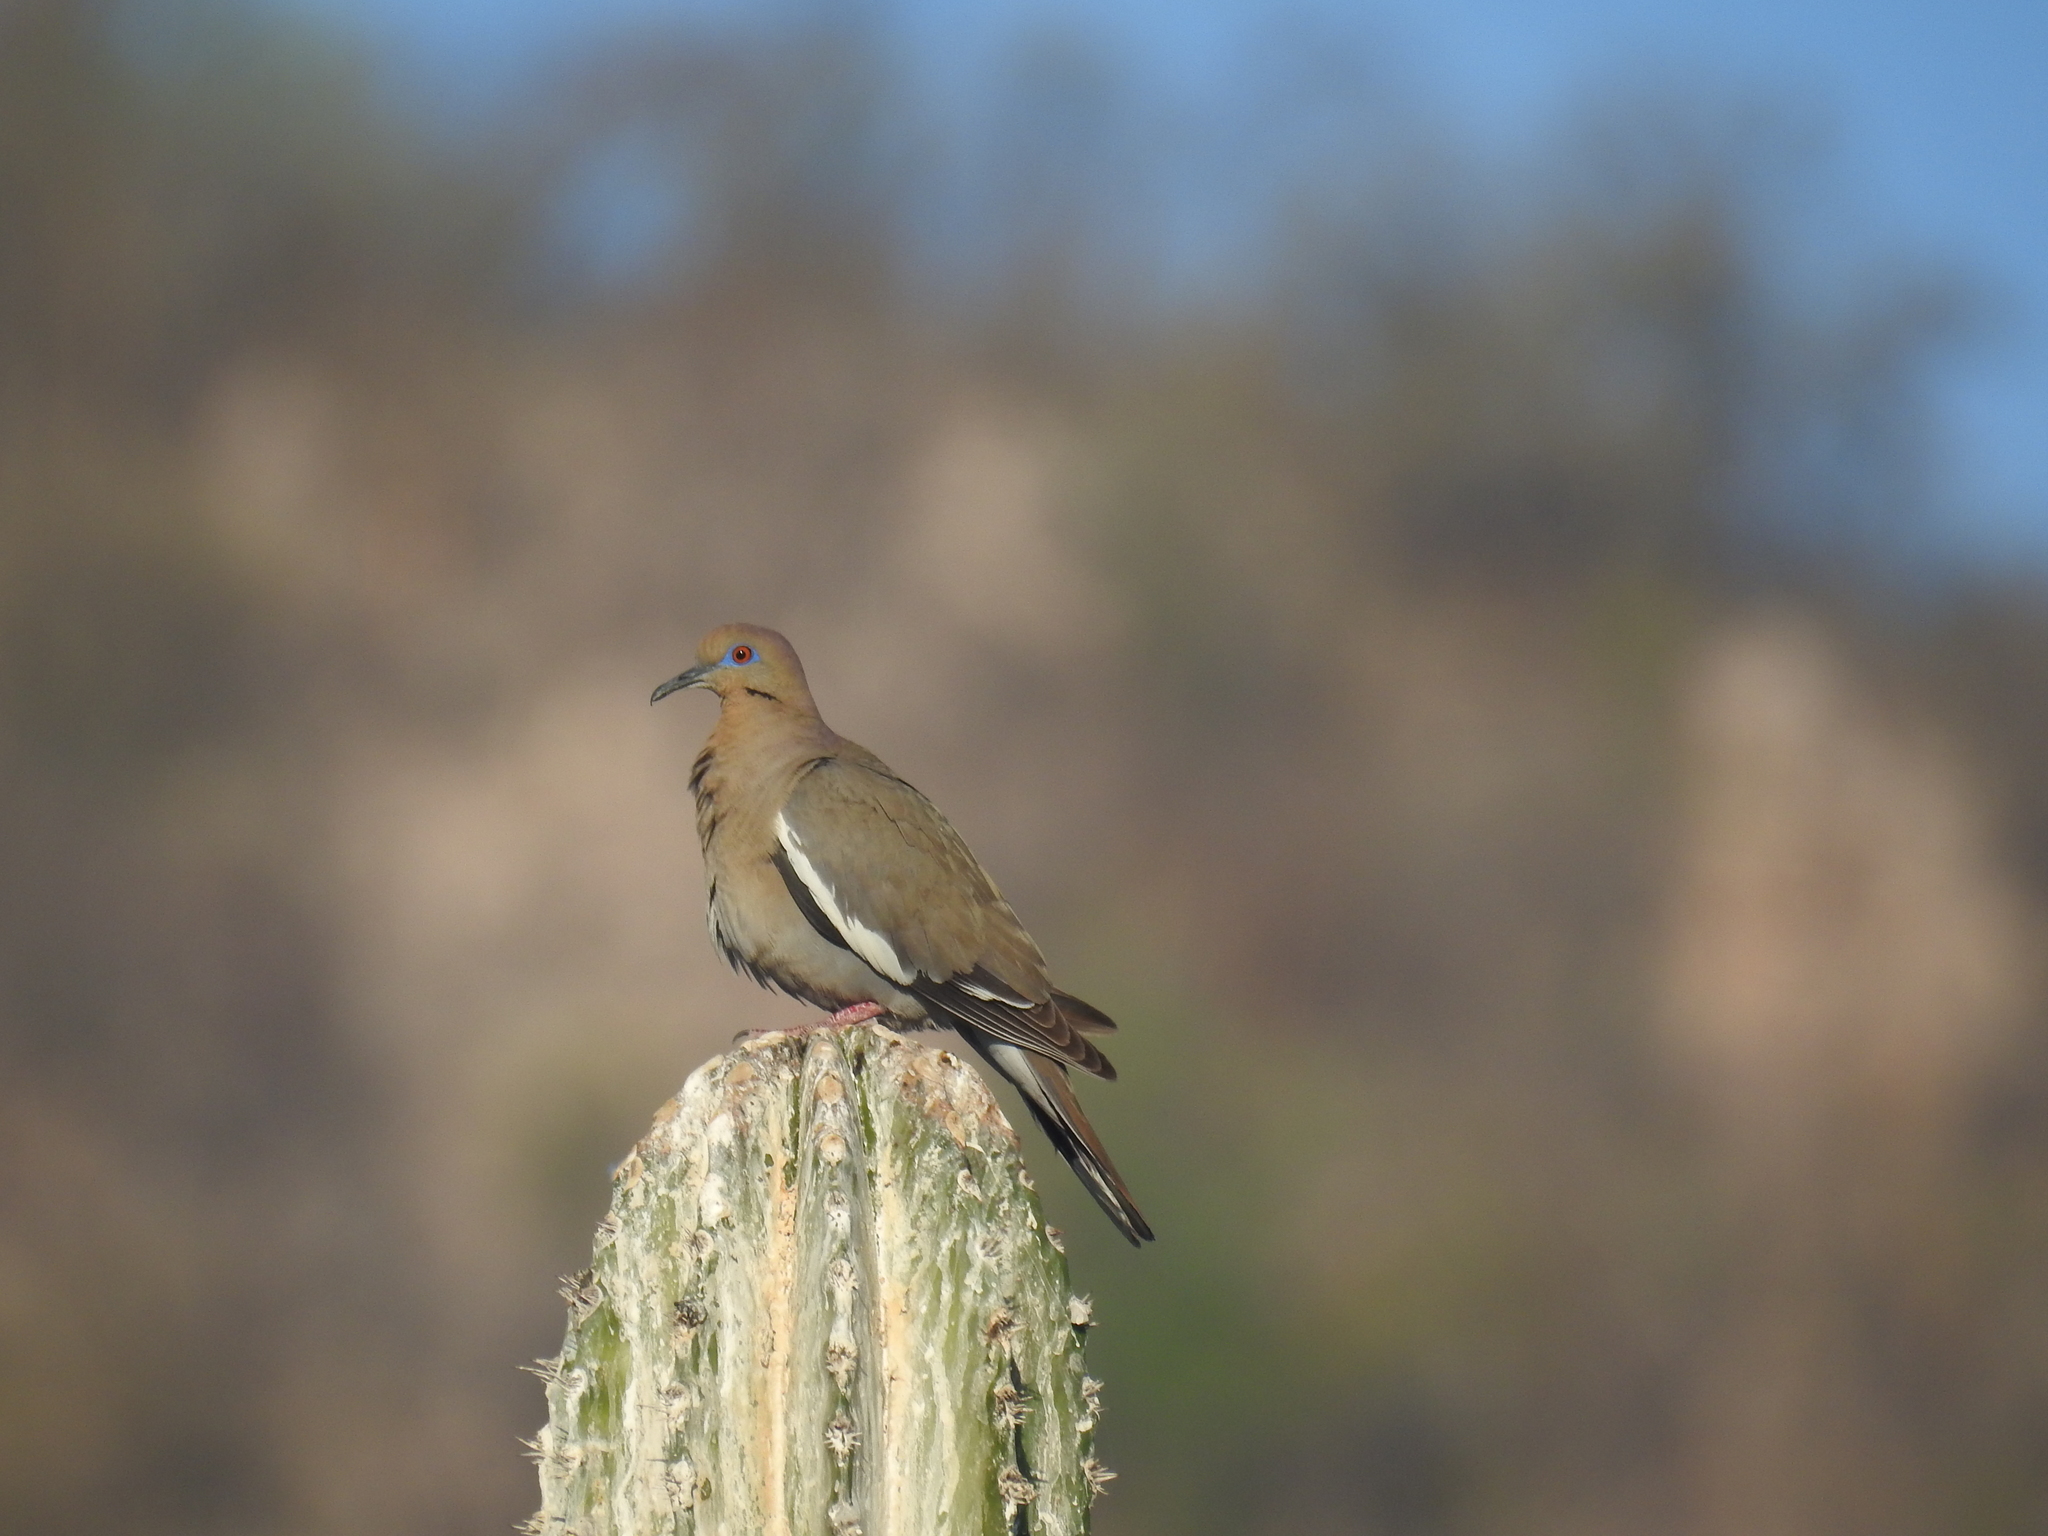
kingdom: Animalia
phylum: Chordata
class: Aves
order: Columbiformes
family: Columbidae
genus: Zenaida
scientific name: Zenaida asiatica
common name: White-winged dove
